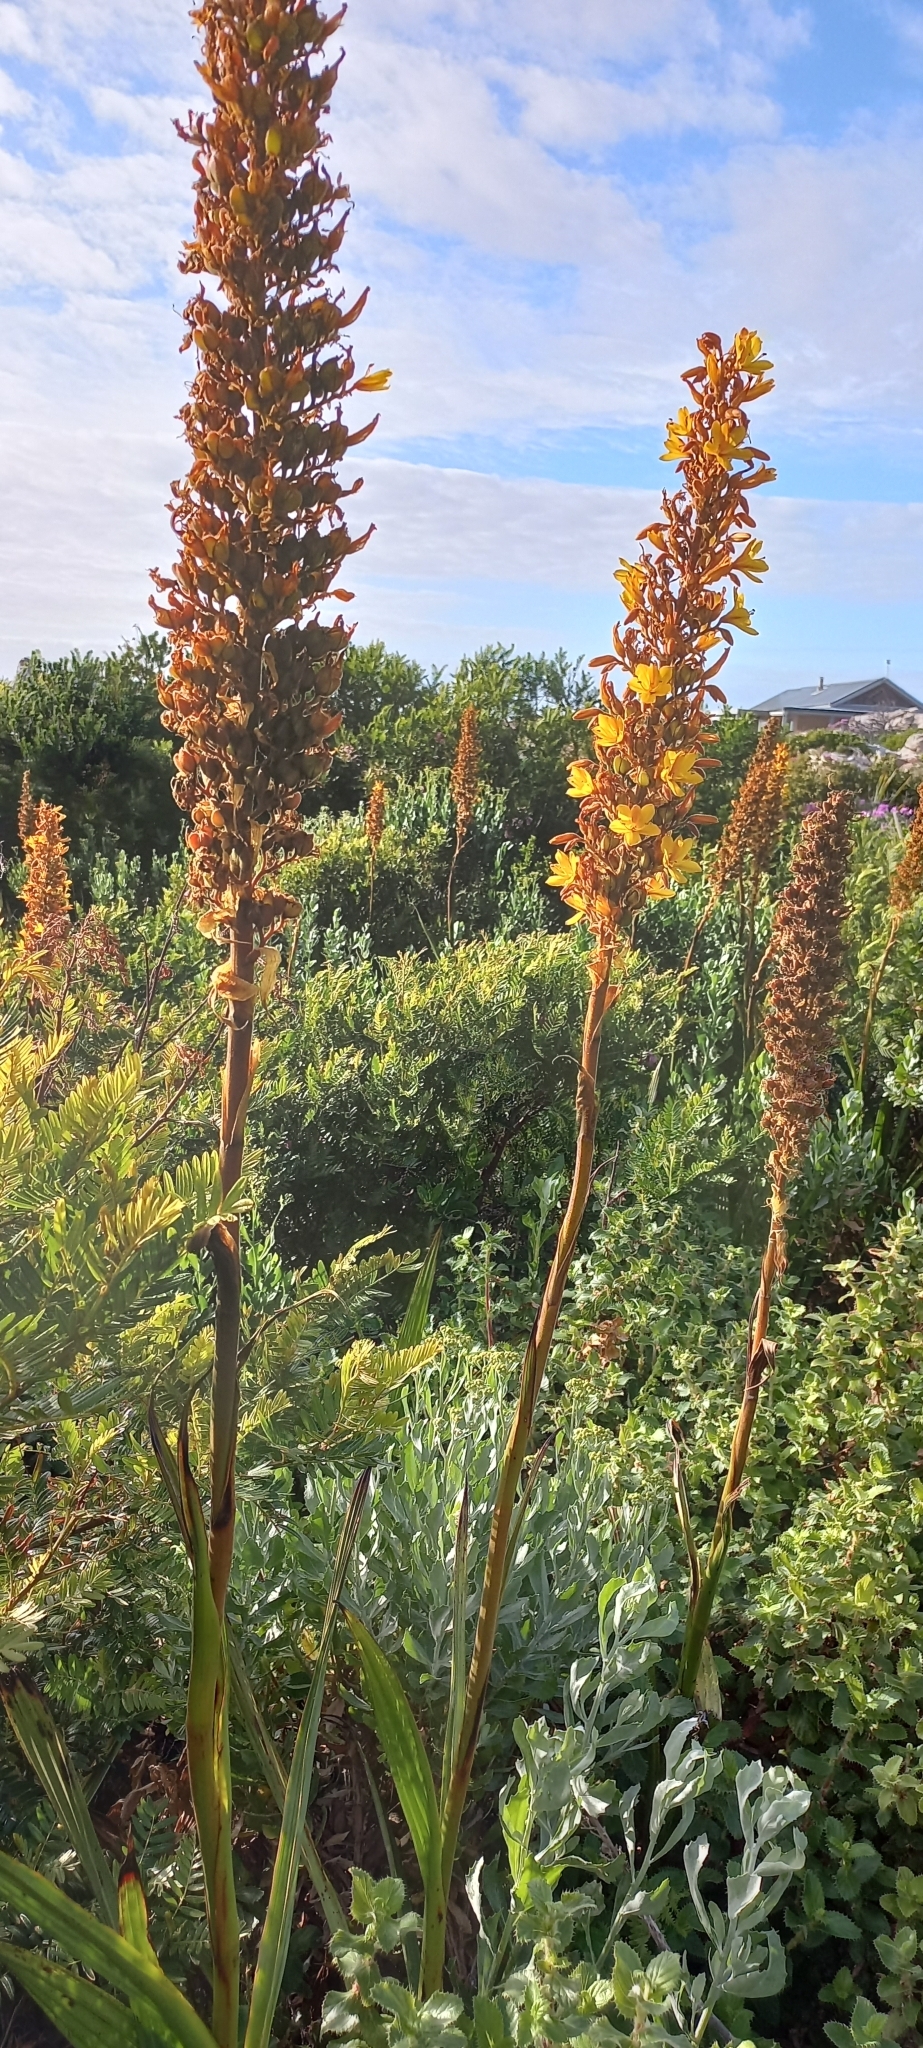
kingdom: Plantae
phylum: Tracheophyta
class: Liliopsida
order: Commelinales
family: Haemodoraceae
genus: Wachendorfia
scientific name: Wachendorfia thyrsiflora
